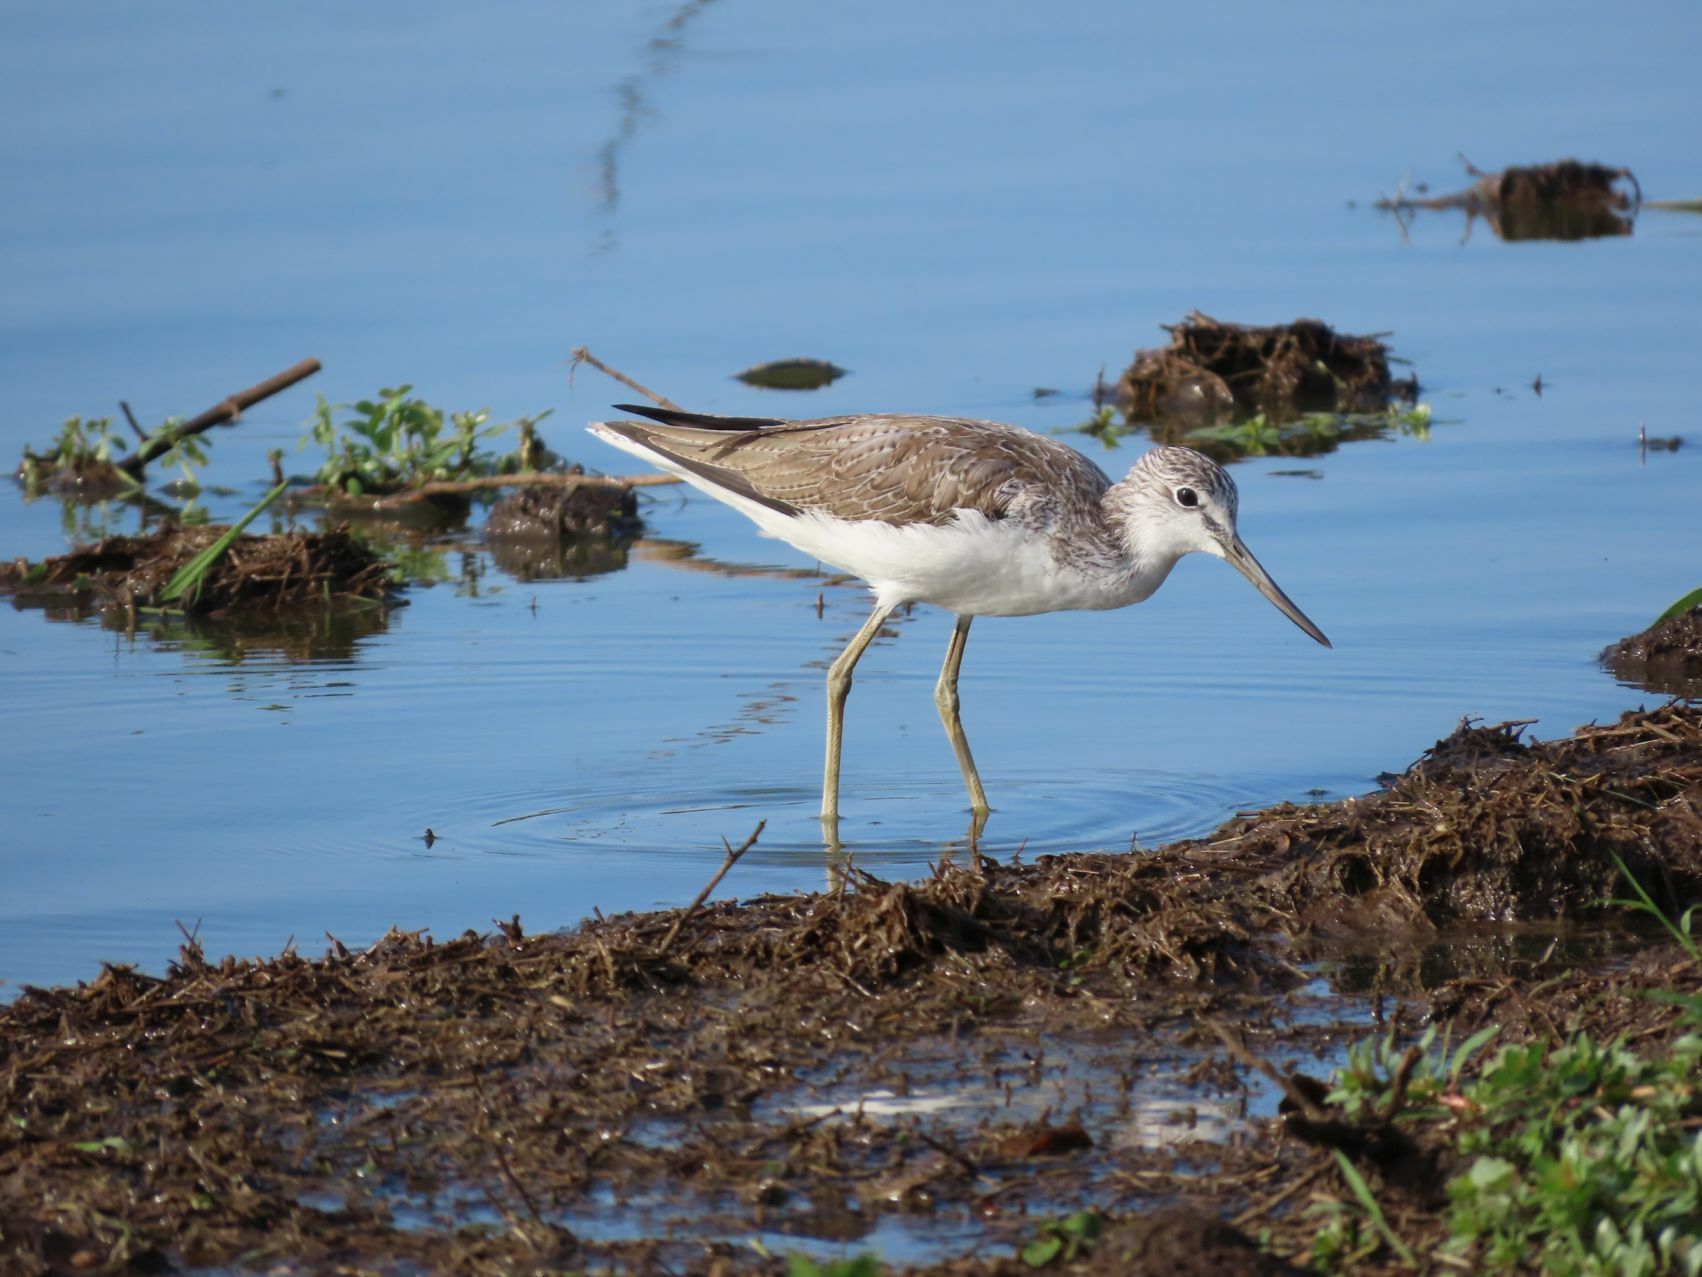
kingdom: Animalia
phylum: Chordata
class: Aves
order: Charadriiformes
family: Scolopacidae
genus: Tringa
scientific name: Tringa nebularia
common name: Common greenshank
